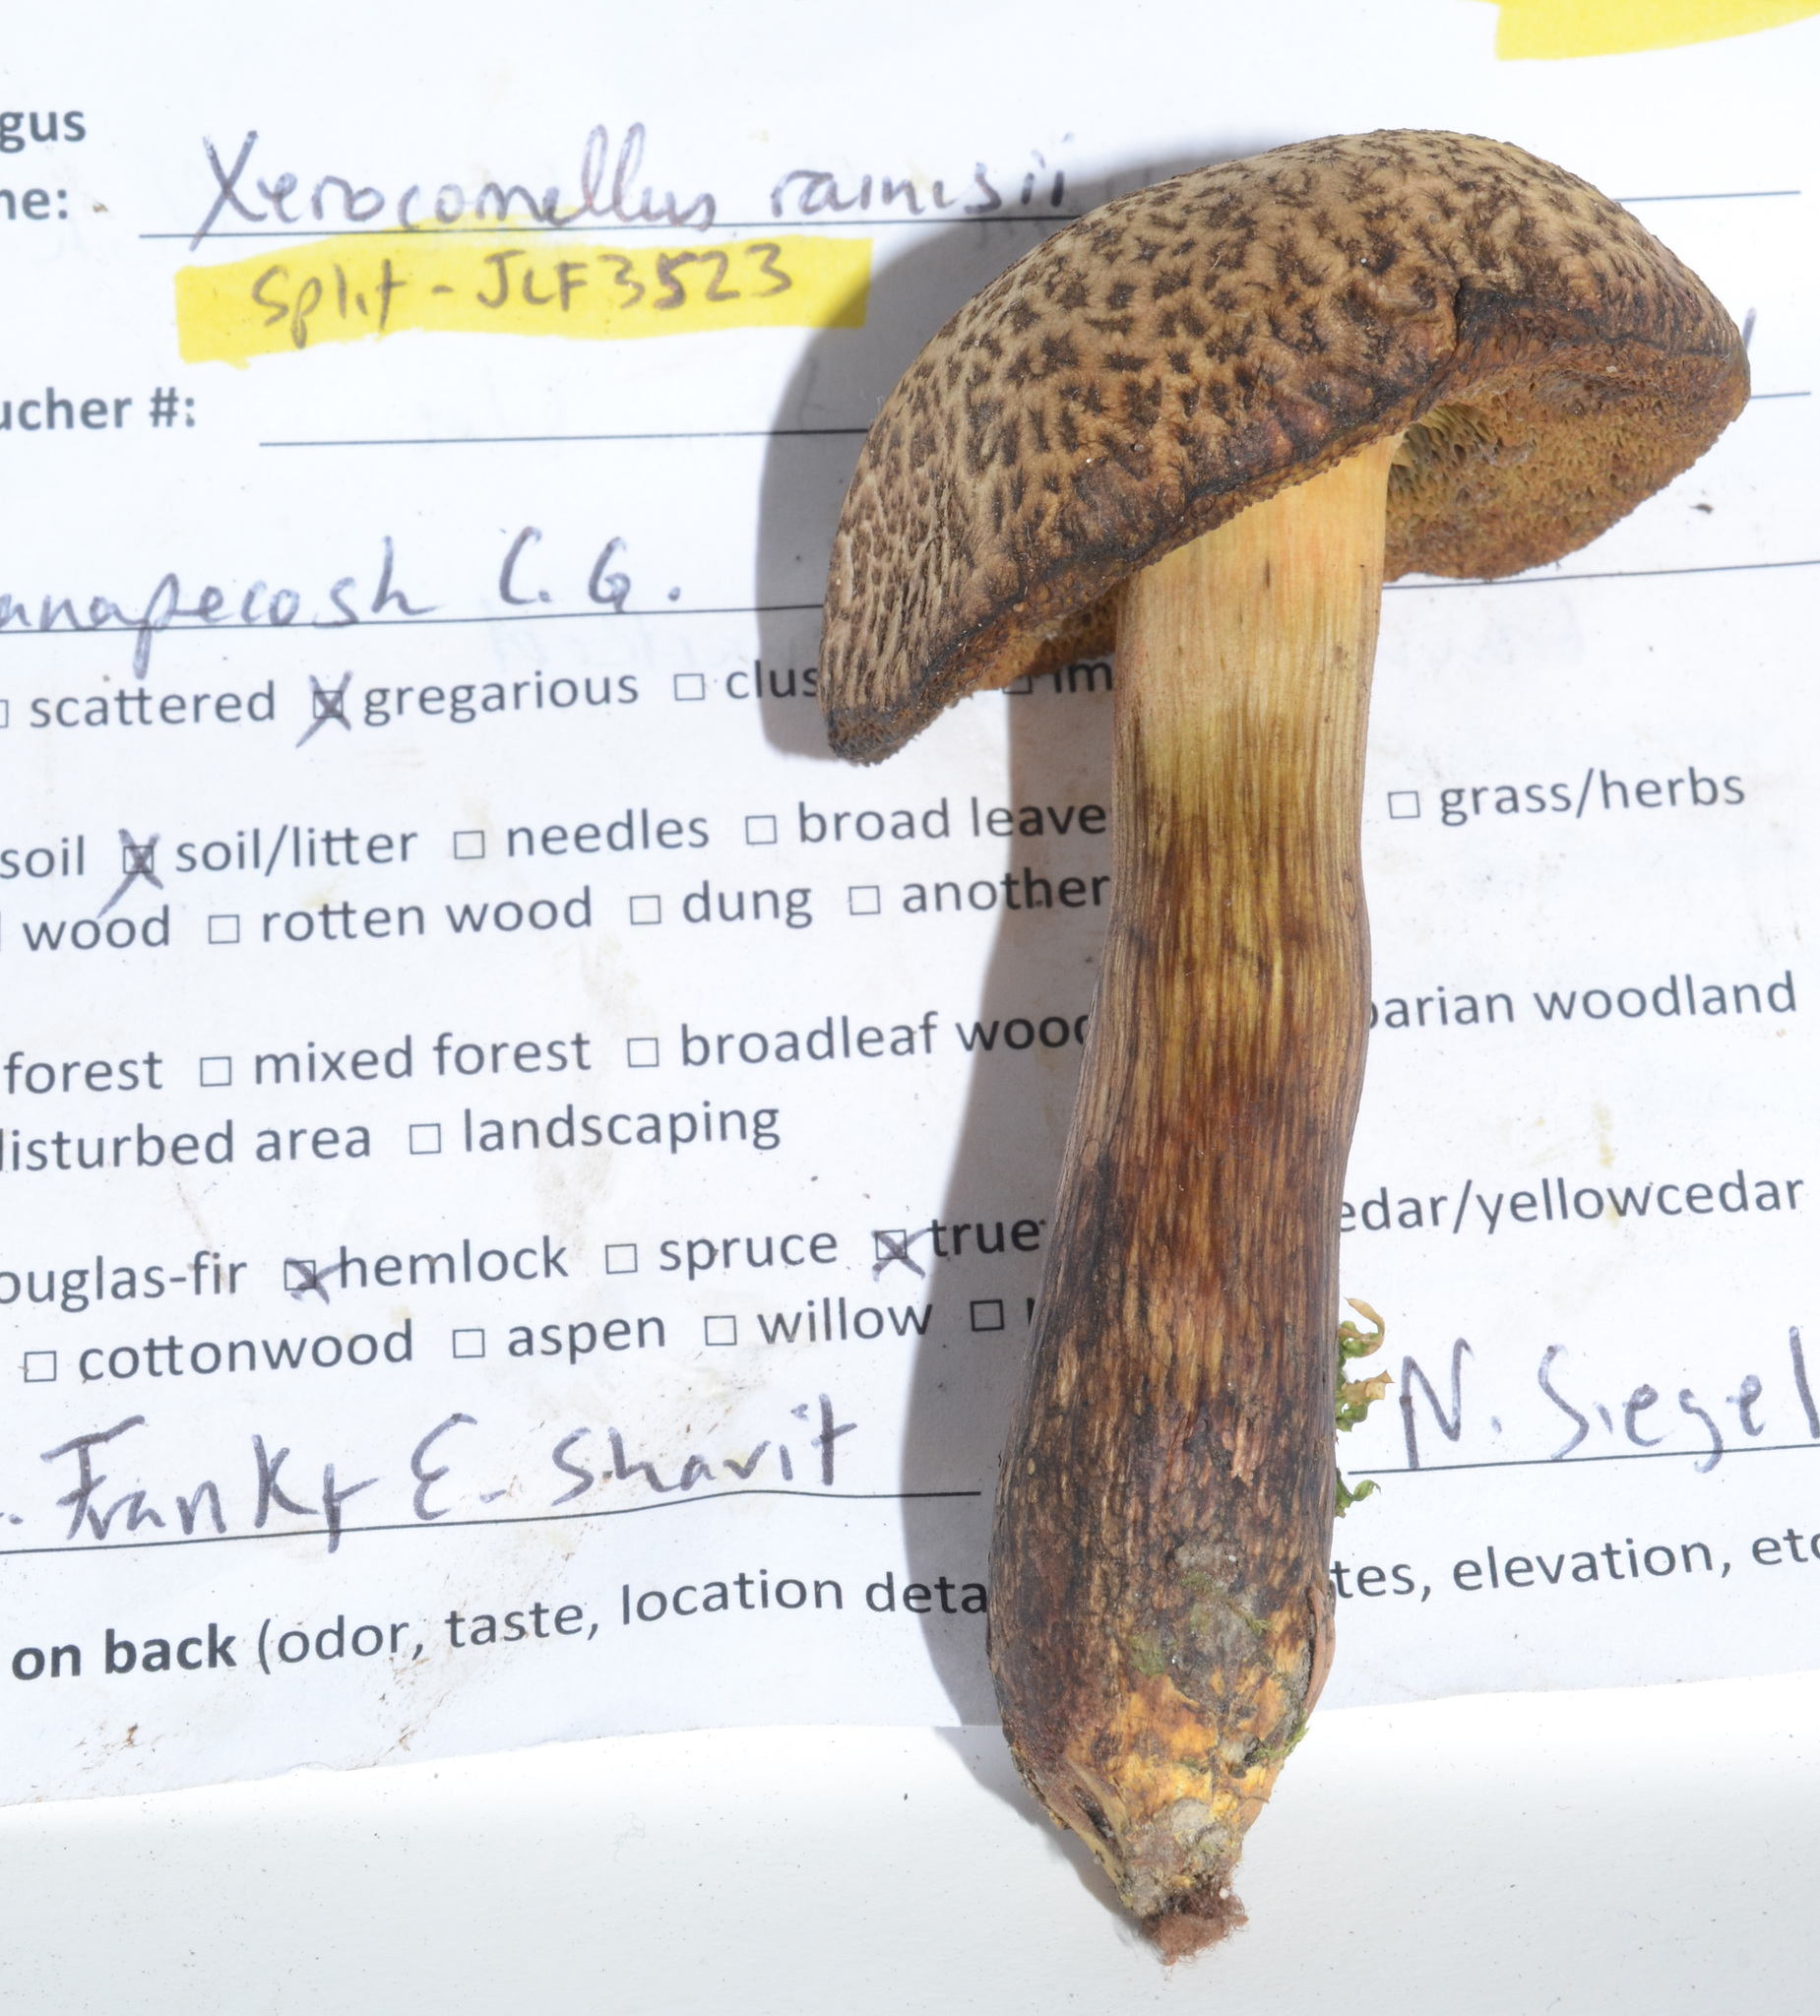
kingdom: Fungi
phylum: Basidiomycota
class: Agaricomycetes
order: Boletales
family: Boletaceae
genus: Cyanoboletus
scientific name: Cyanoboletus rainisiae
